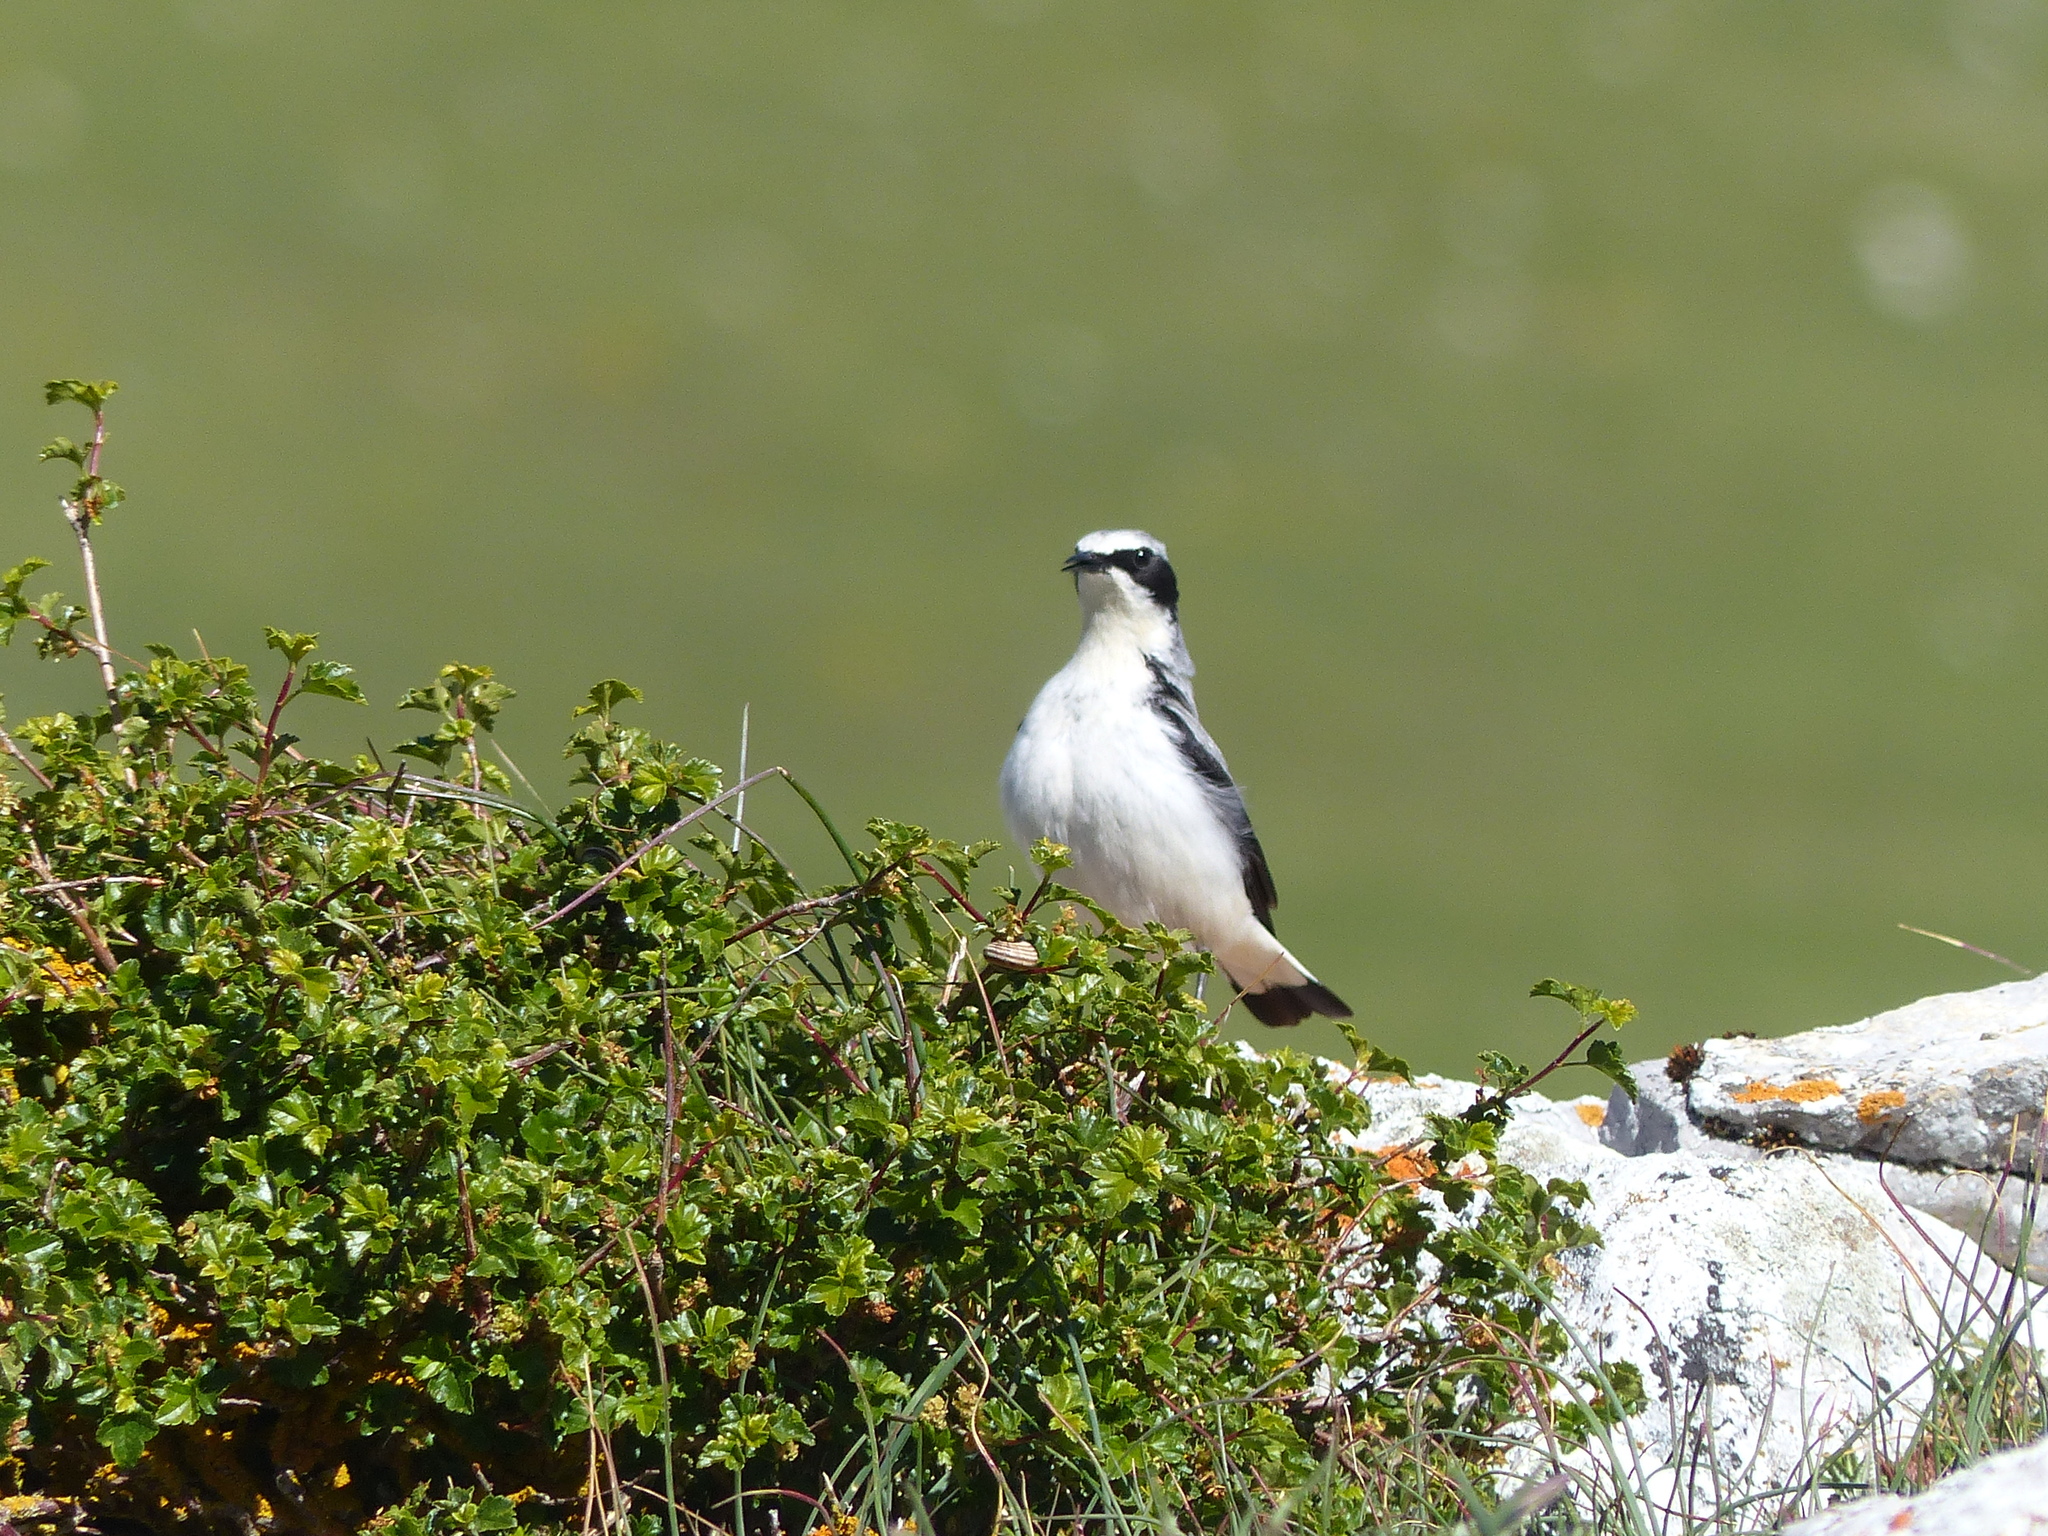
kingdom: Animalia
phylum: Chordata
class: Aves
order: Passeriformes
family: Muscicapidae
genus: Oenanthe
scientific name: Oenanthe oenanthe
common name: Northern wheatear
